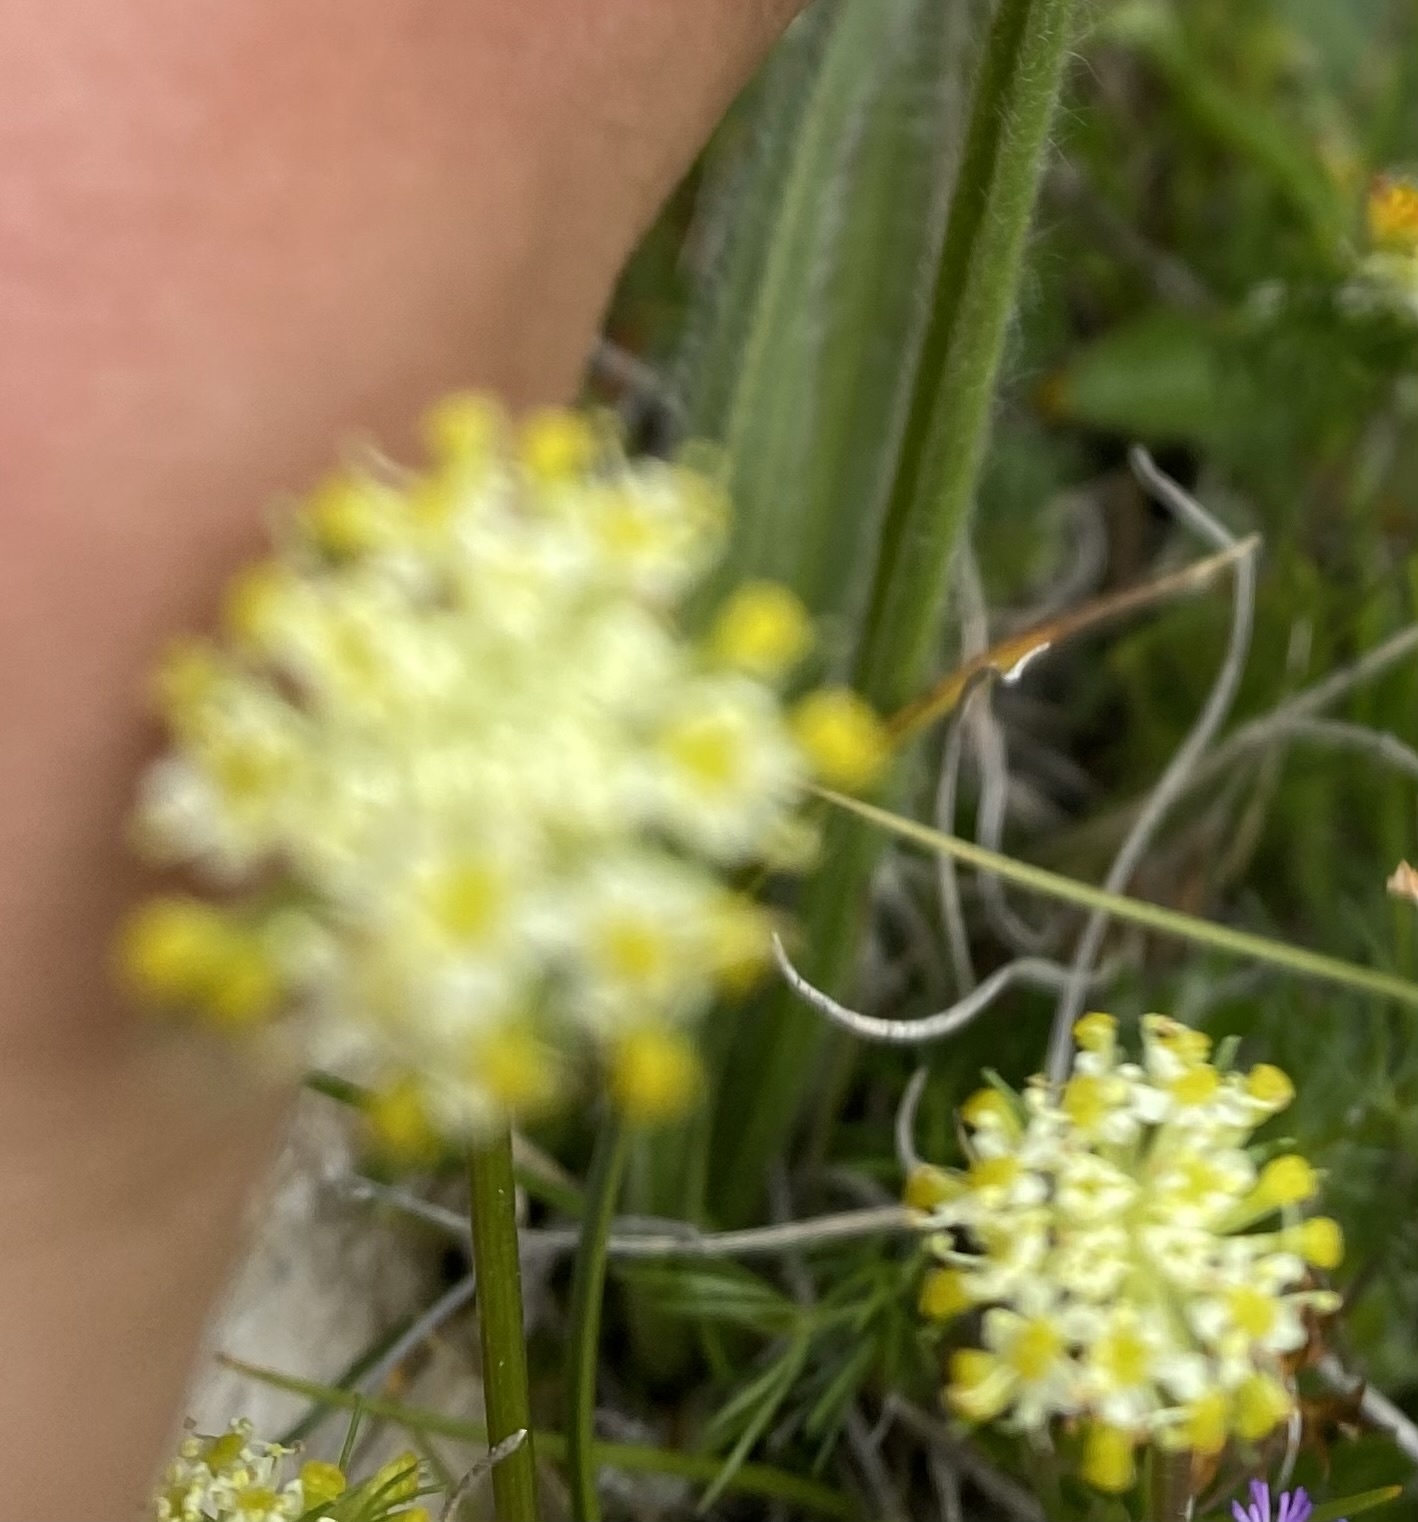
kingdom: Plantae
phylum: Tracheophyta
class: Magnoliopsida
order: Apiales
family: Apiaceae
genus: Chamaesciadium
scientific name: Chamaesciadium acaule
